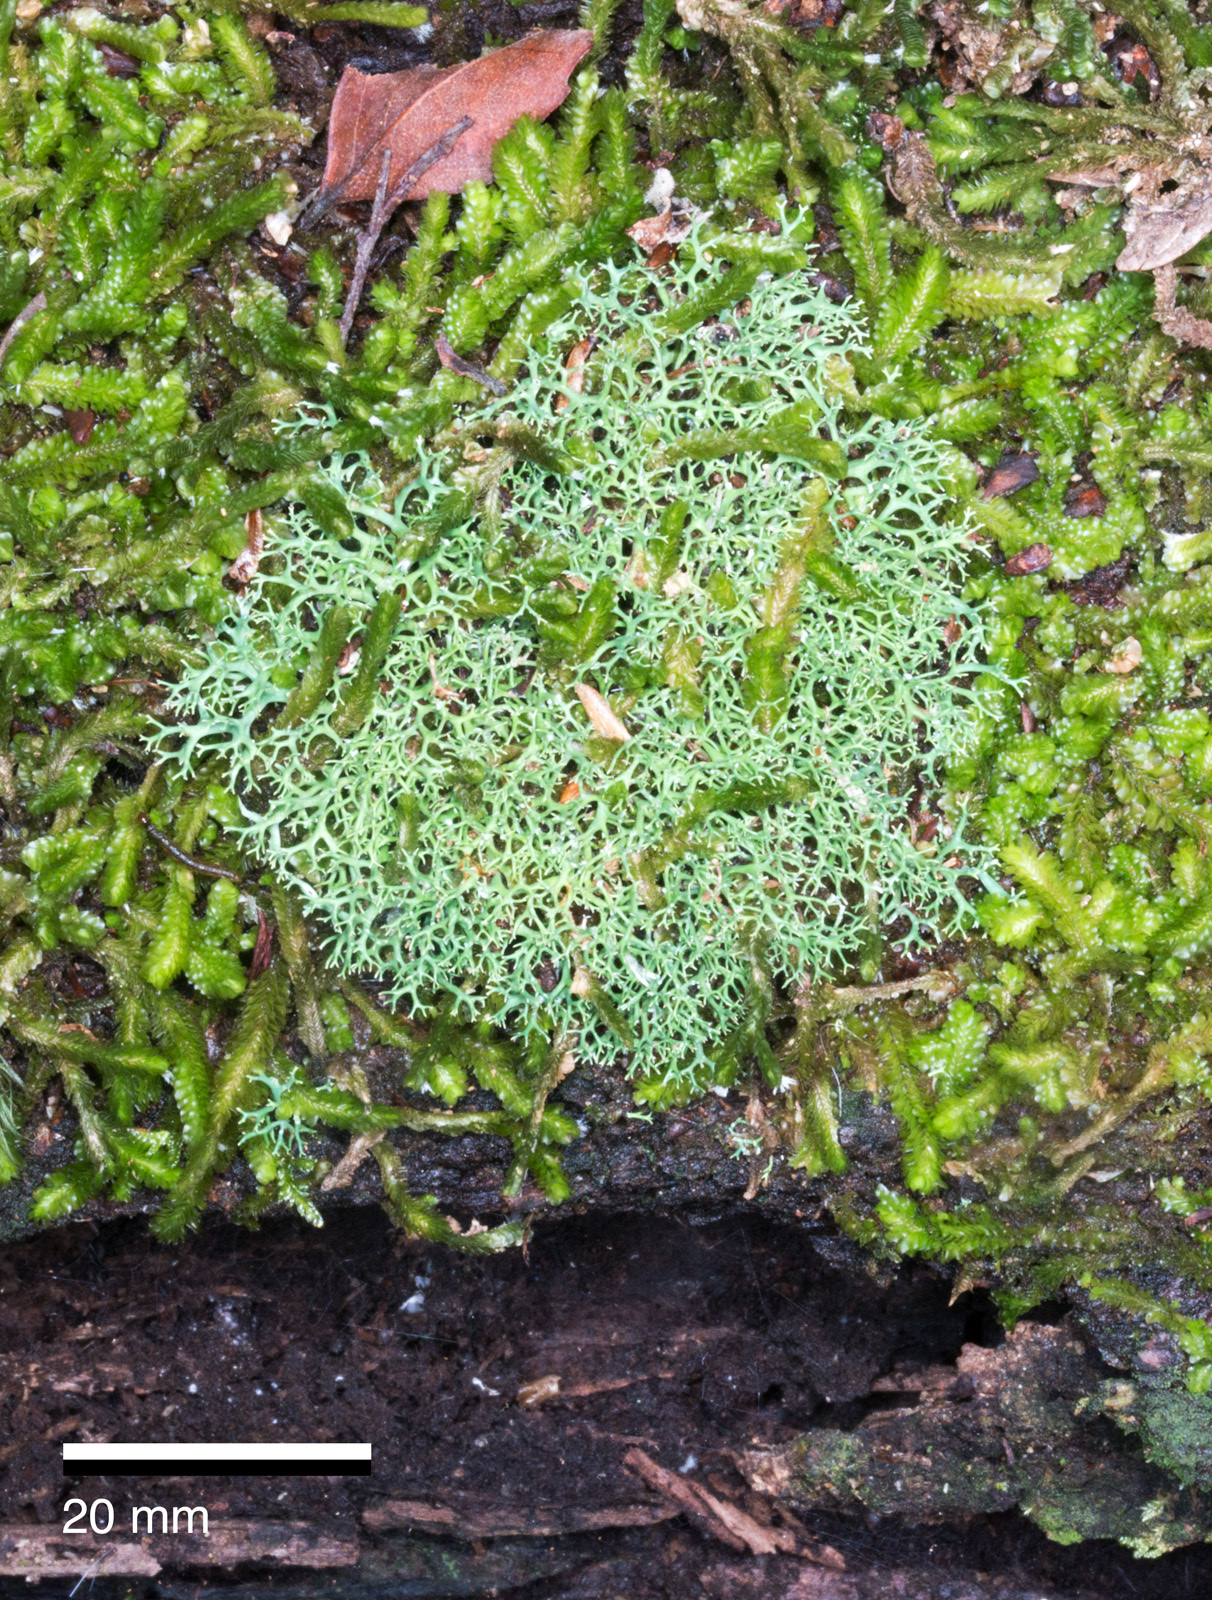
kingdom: Fungi
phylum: Ascomycota
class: Lecanoromycetes
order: Lecanorales
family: Cladoniaceae
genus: Cladia
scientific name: Cladia aggregata
